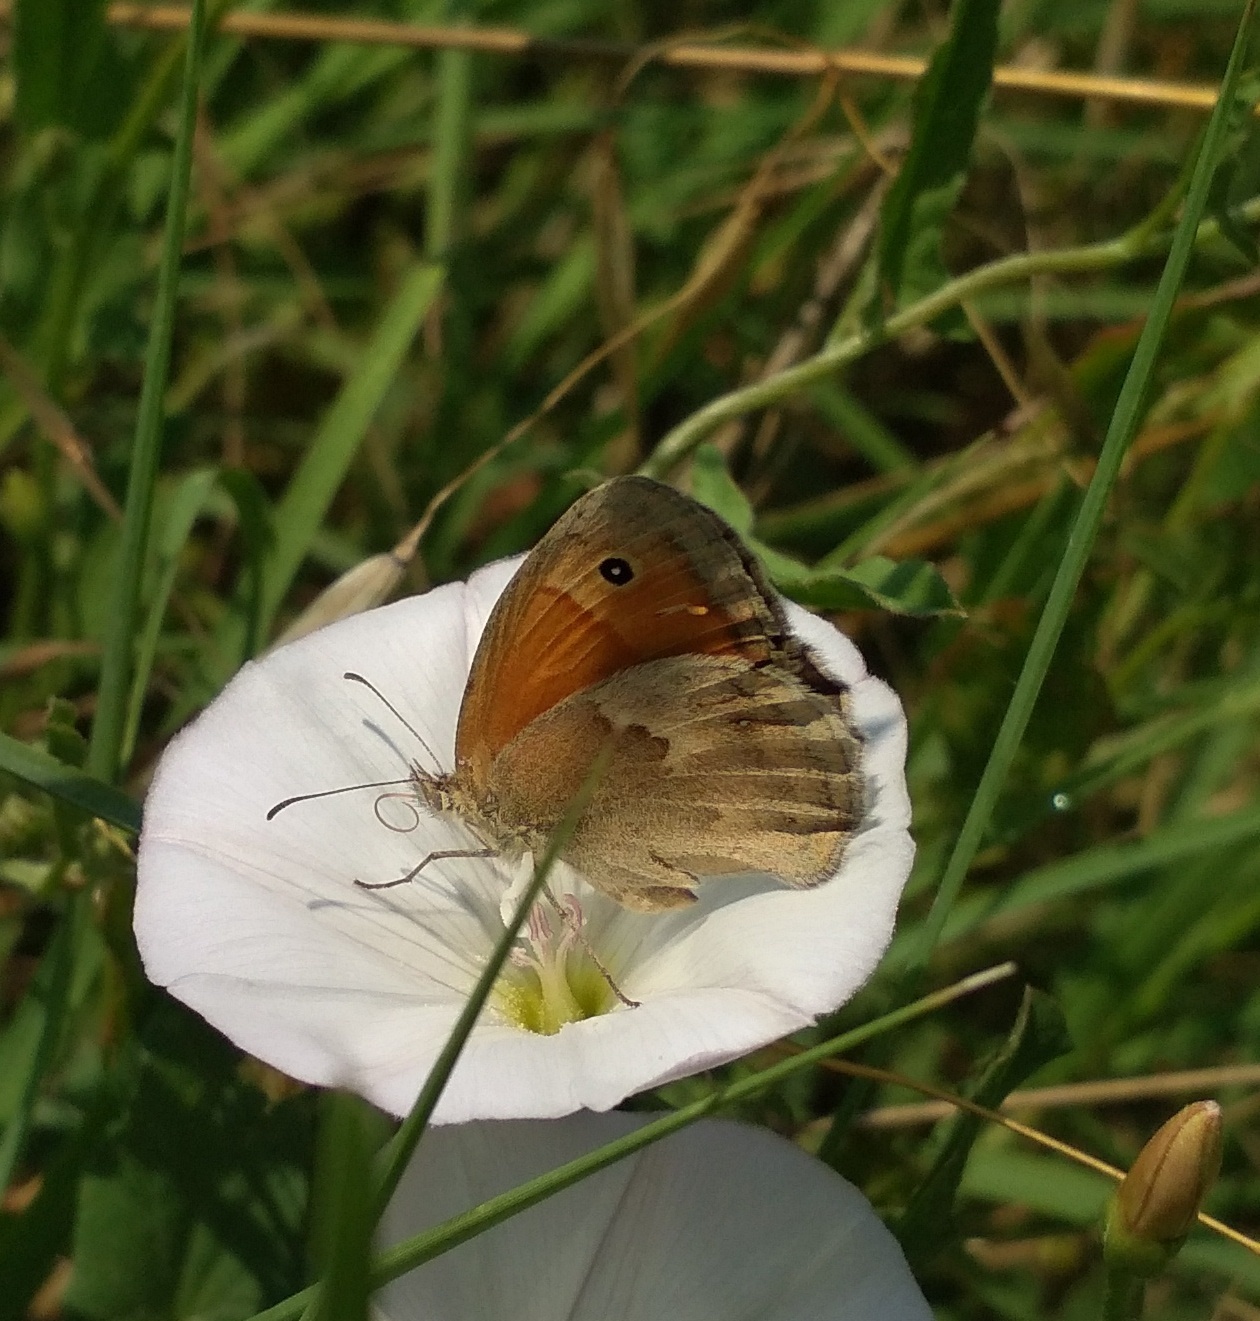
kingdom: Animalia
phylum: Arthropoda
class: Insecta
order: Lepidoptera
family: Nymphalidae
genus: Coenonympha
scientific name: Coenonympha pamphilus
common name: Small heath
